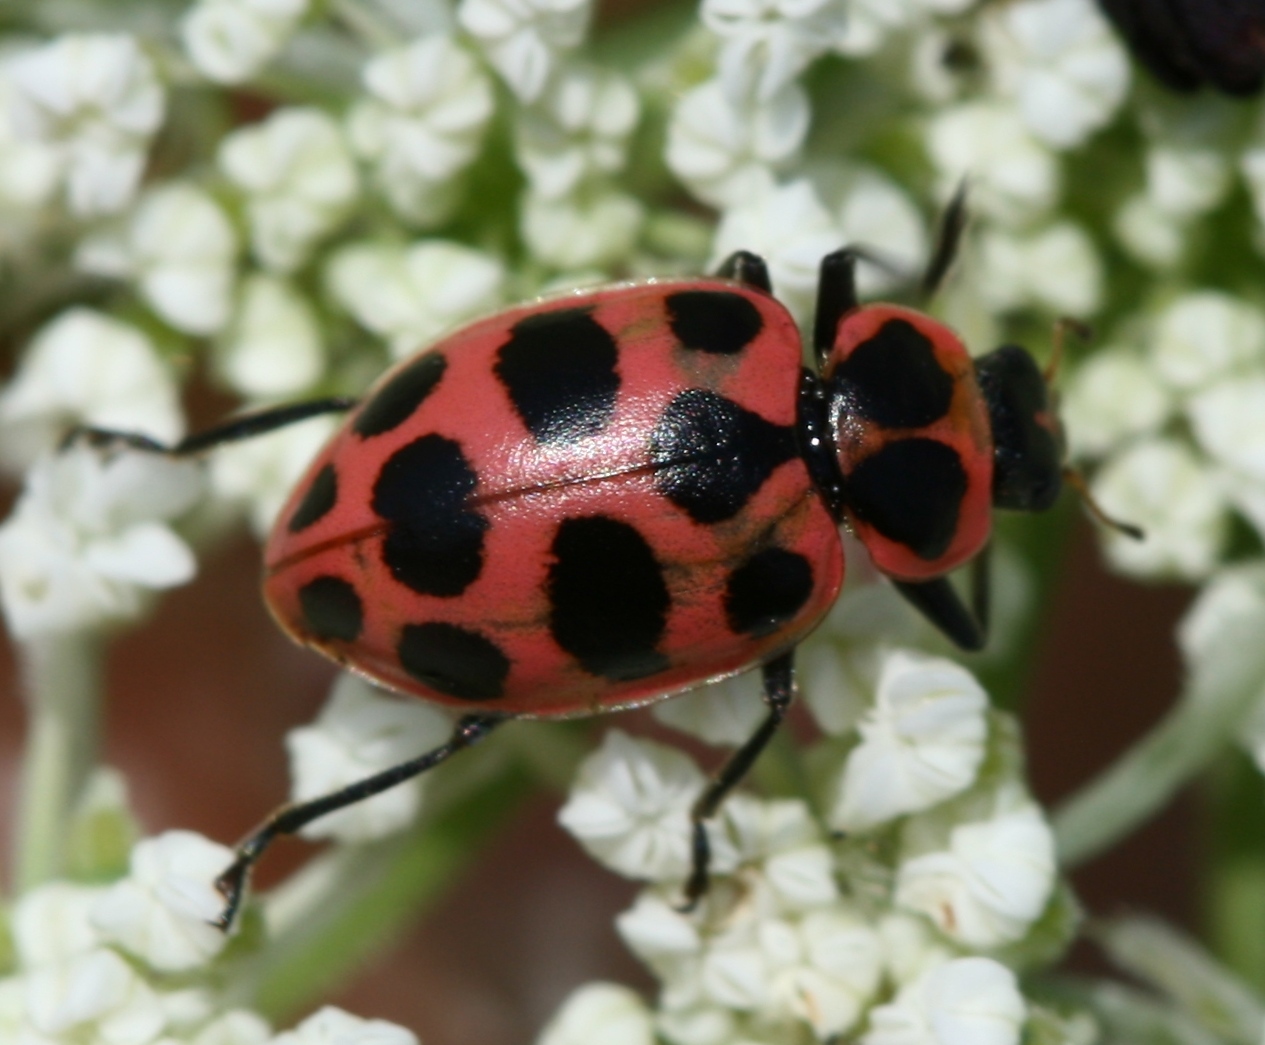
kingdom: Animalia
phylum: Arthropoda
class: Insecta
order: Coleoptera
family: Coccinellidae
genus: Coleomegilla
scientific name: Coleomegilla maculata
